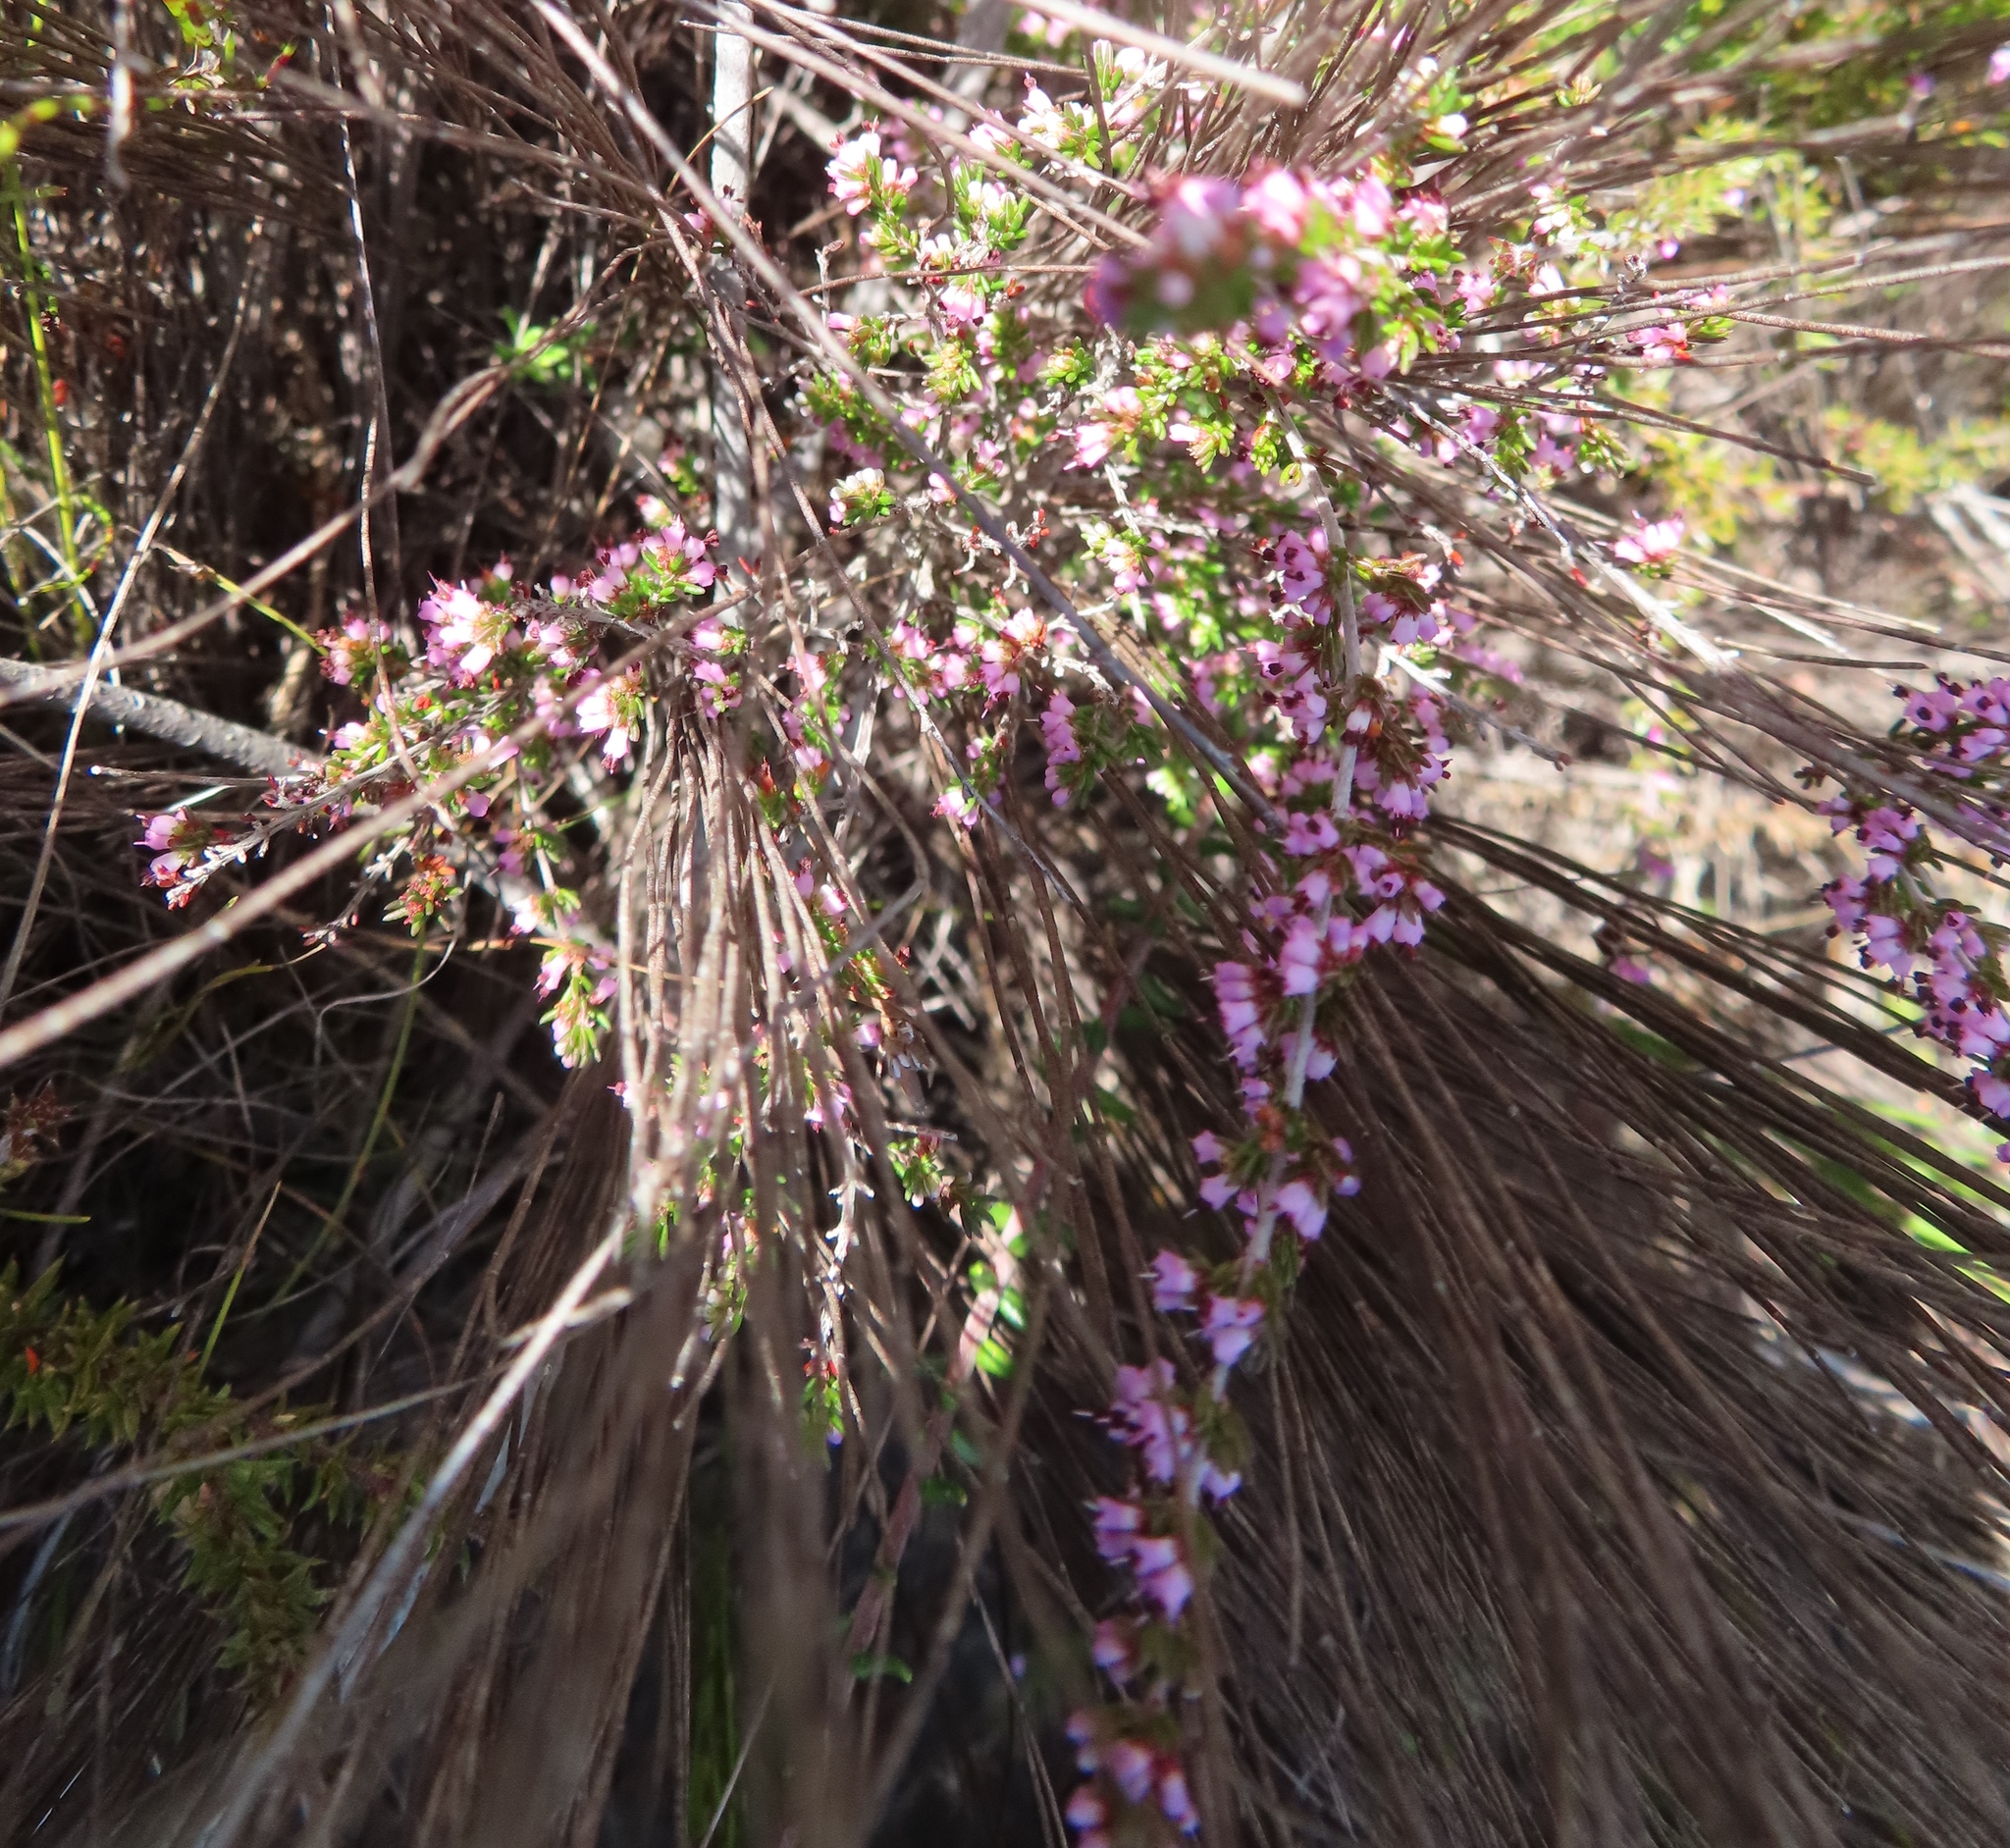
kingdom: Plantae
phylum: Tracheophyta
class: Magnoliopsida
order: Ericales
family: Ericaceae
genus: Erica
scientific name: Erica anguliger
